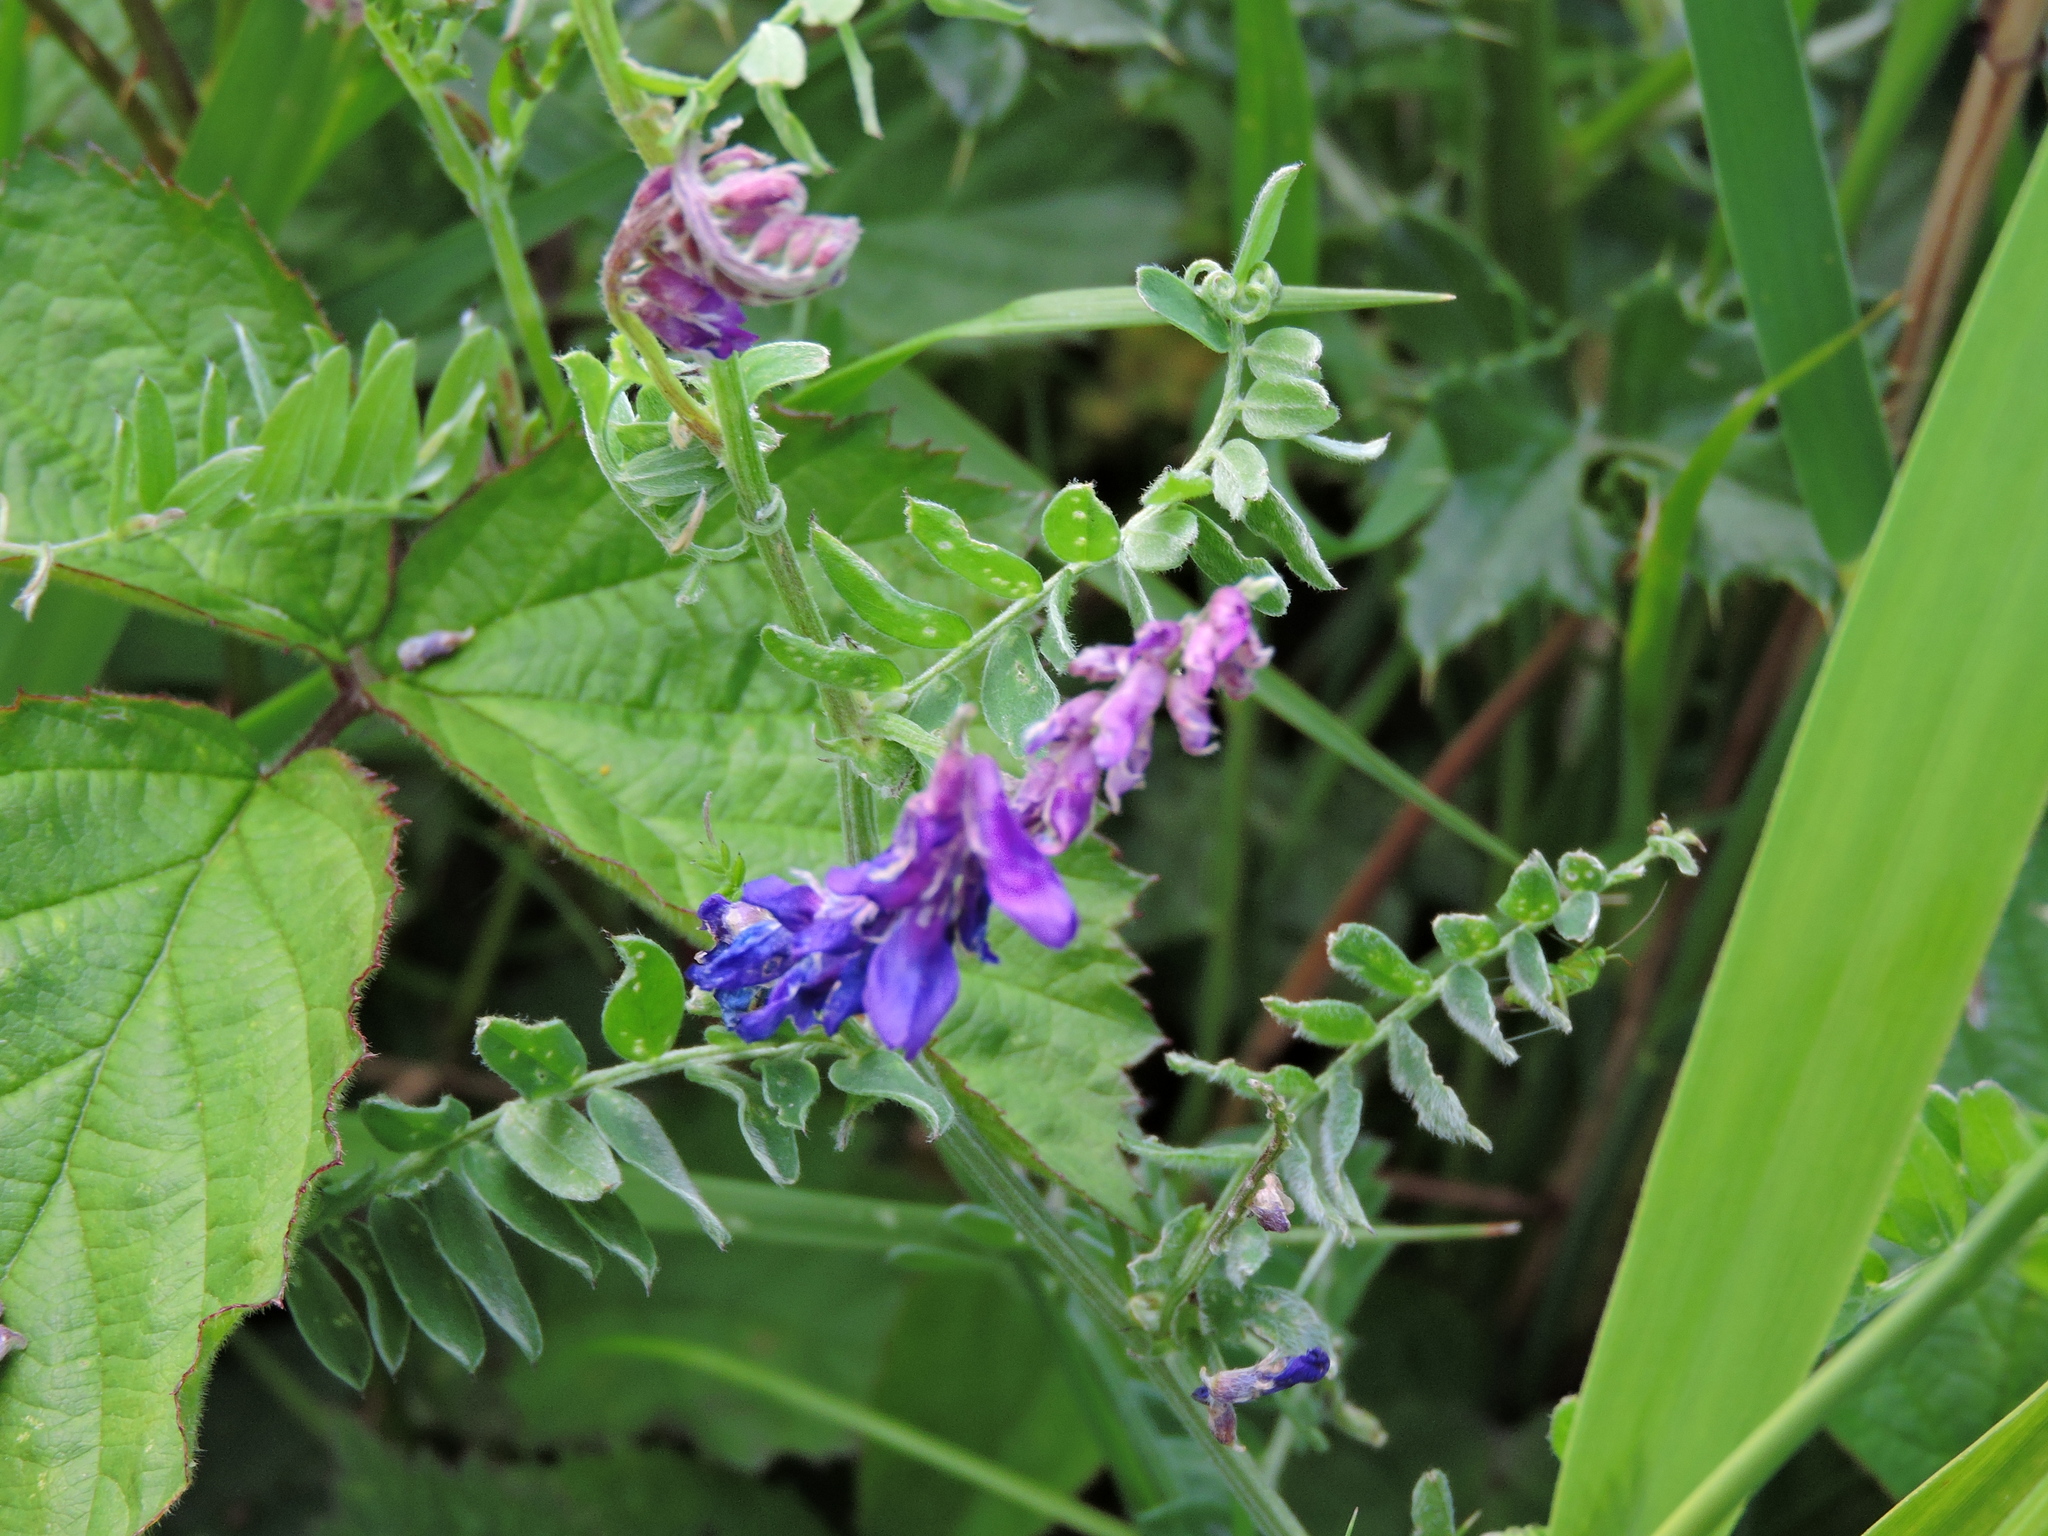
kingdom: Plantae
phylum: Tracheophyta
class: Magnoliopsida
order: Fabales
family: Fabaceae
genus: Vicia
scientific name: Vicia cracca
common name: Bird vetch
